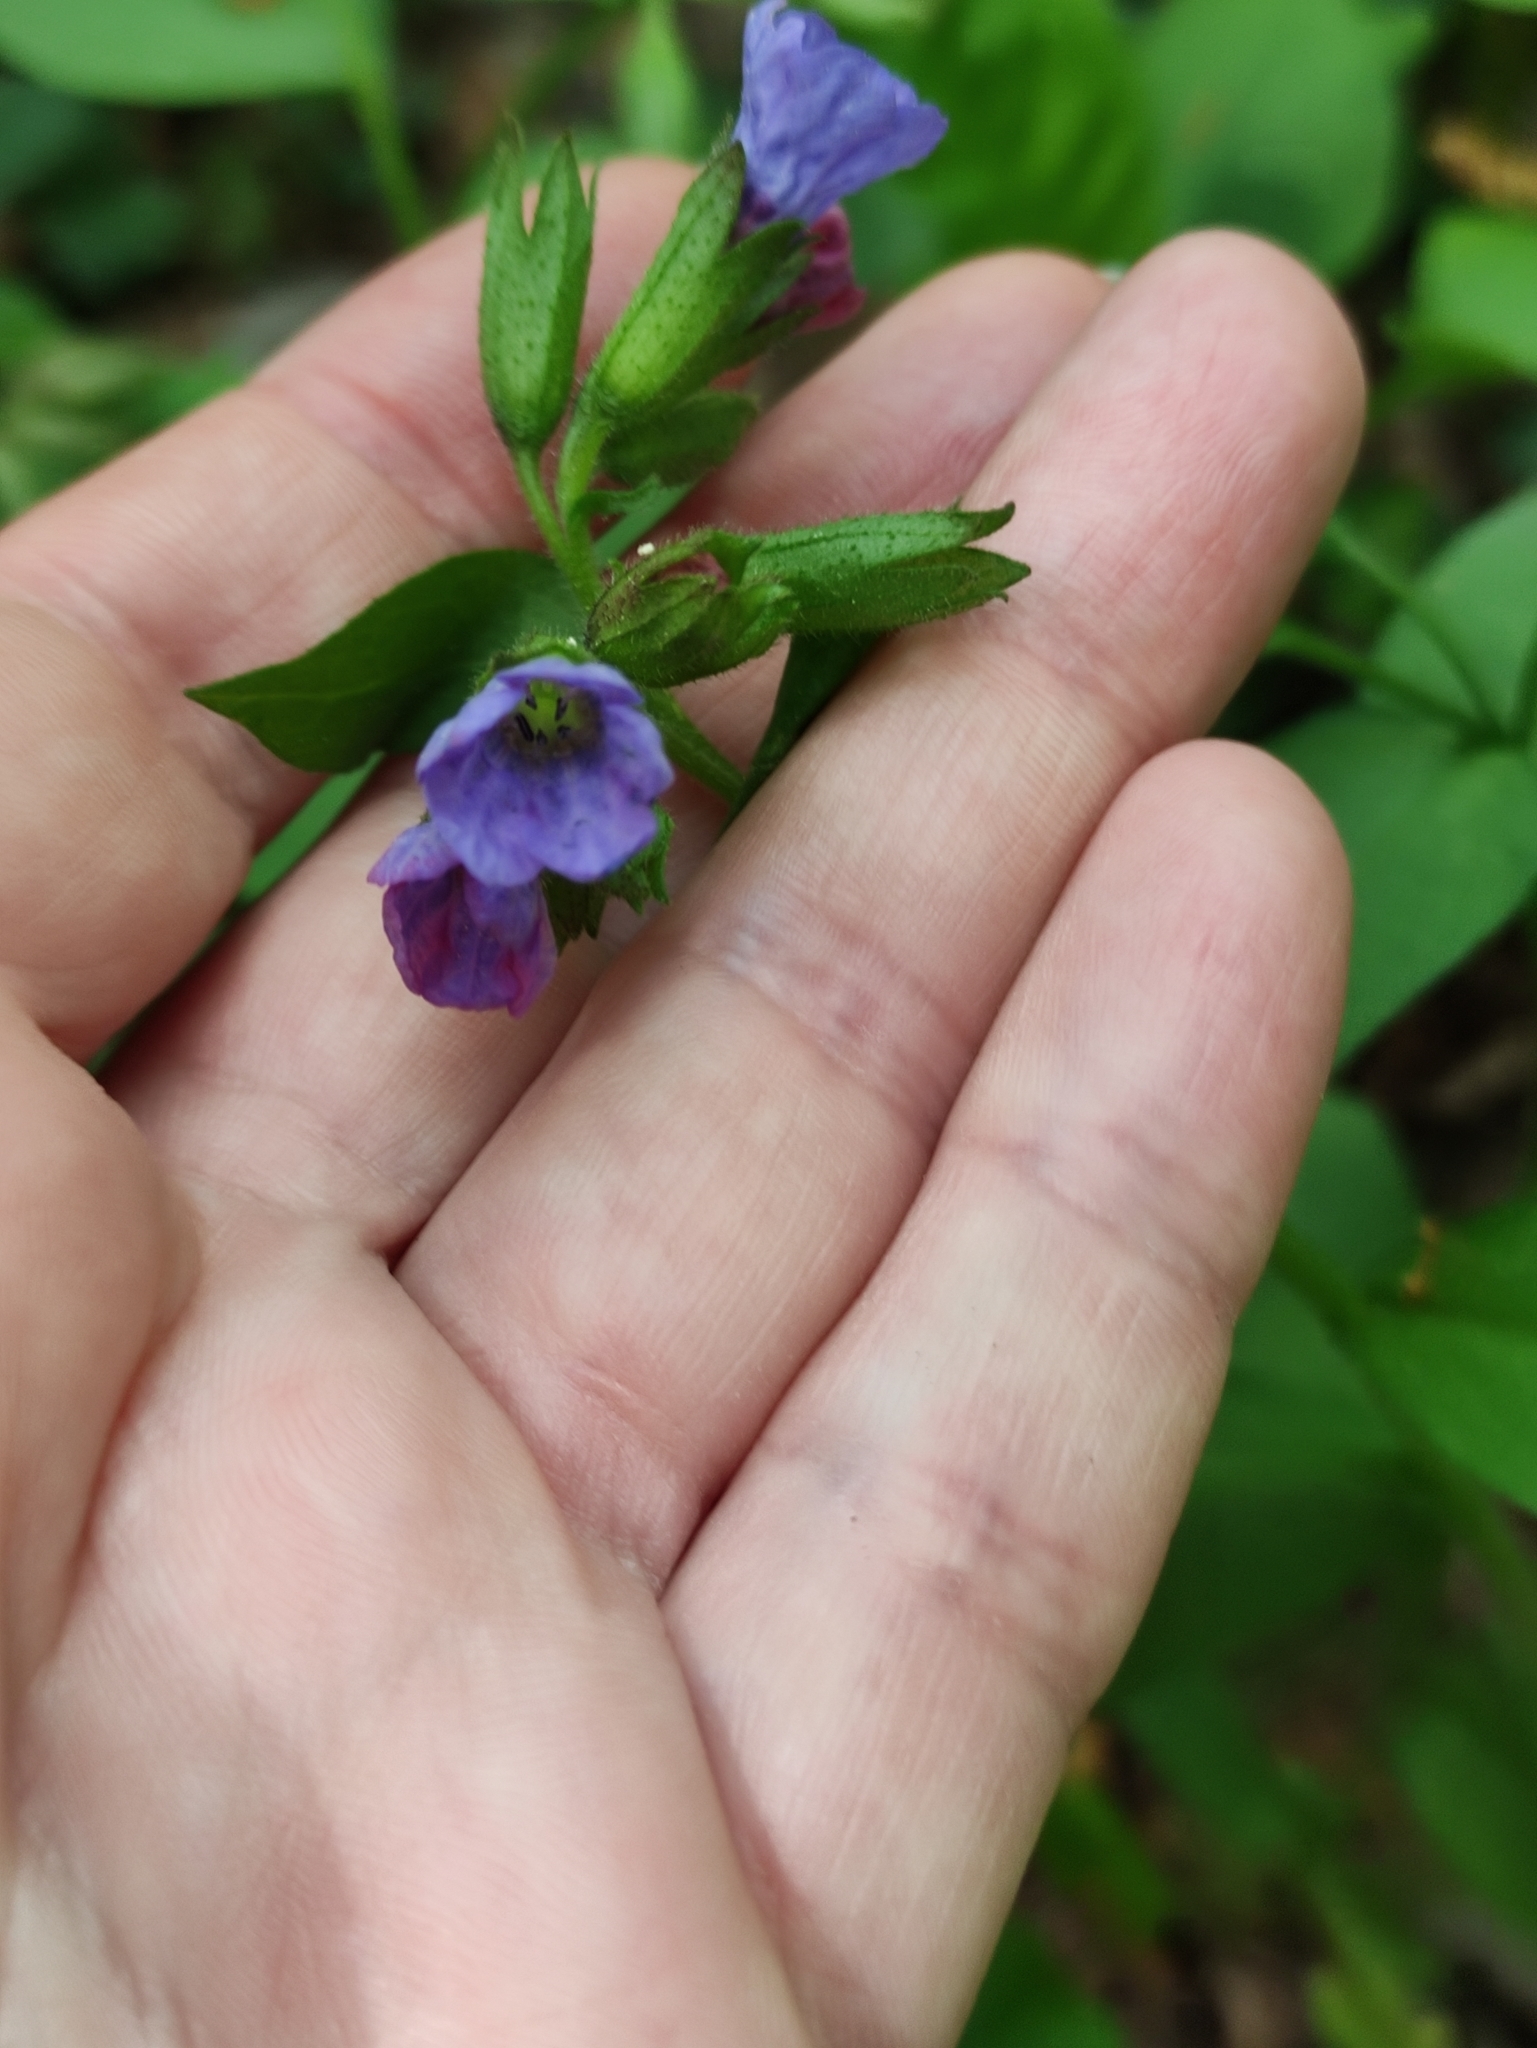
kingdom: Plantae
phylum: Tracheophyta
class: Magnoliopsida
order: Boraginales
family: Boraginaceae
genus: Pulmonaria
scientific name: Pulmonaria obscura
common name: Suffolk lungwort
